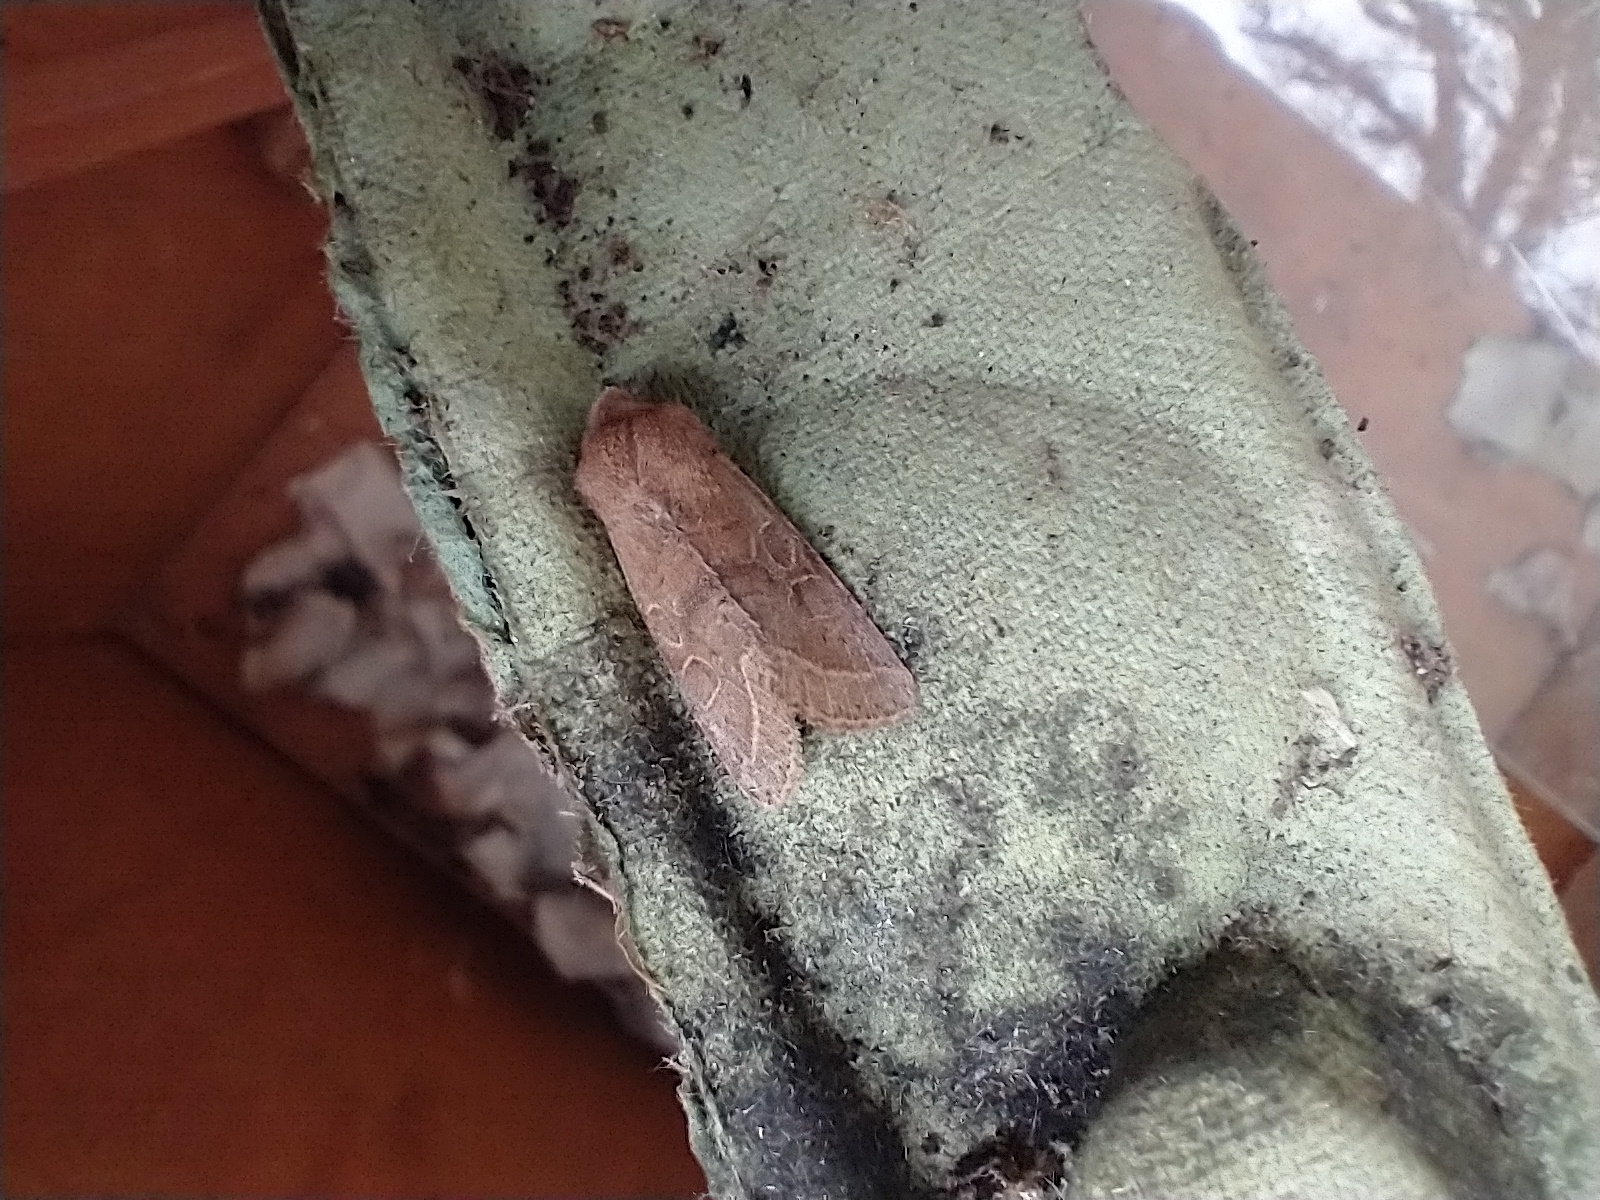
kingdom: Animalia
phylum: Arthropoda
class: Insecta
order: Lepidoptera
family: Noctuidae
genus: Orthosia
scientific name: Orthosia cerasi
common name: Common quaker
